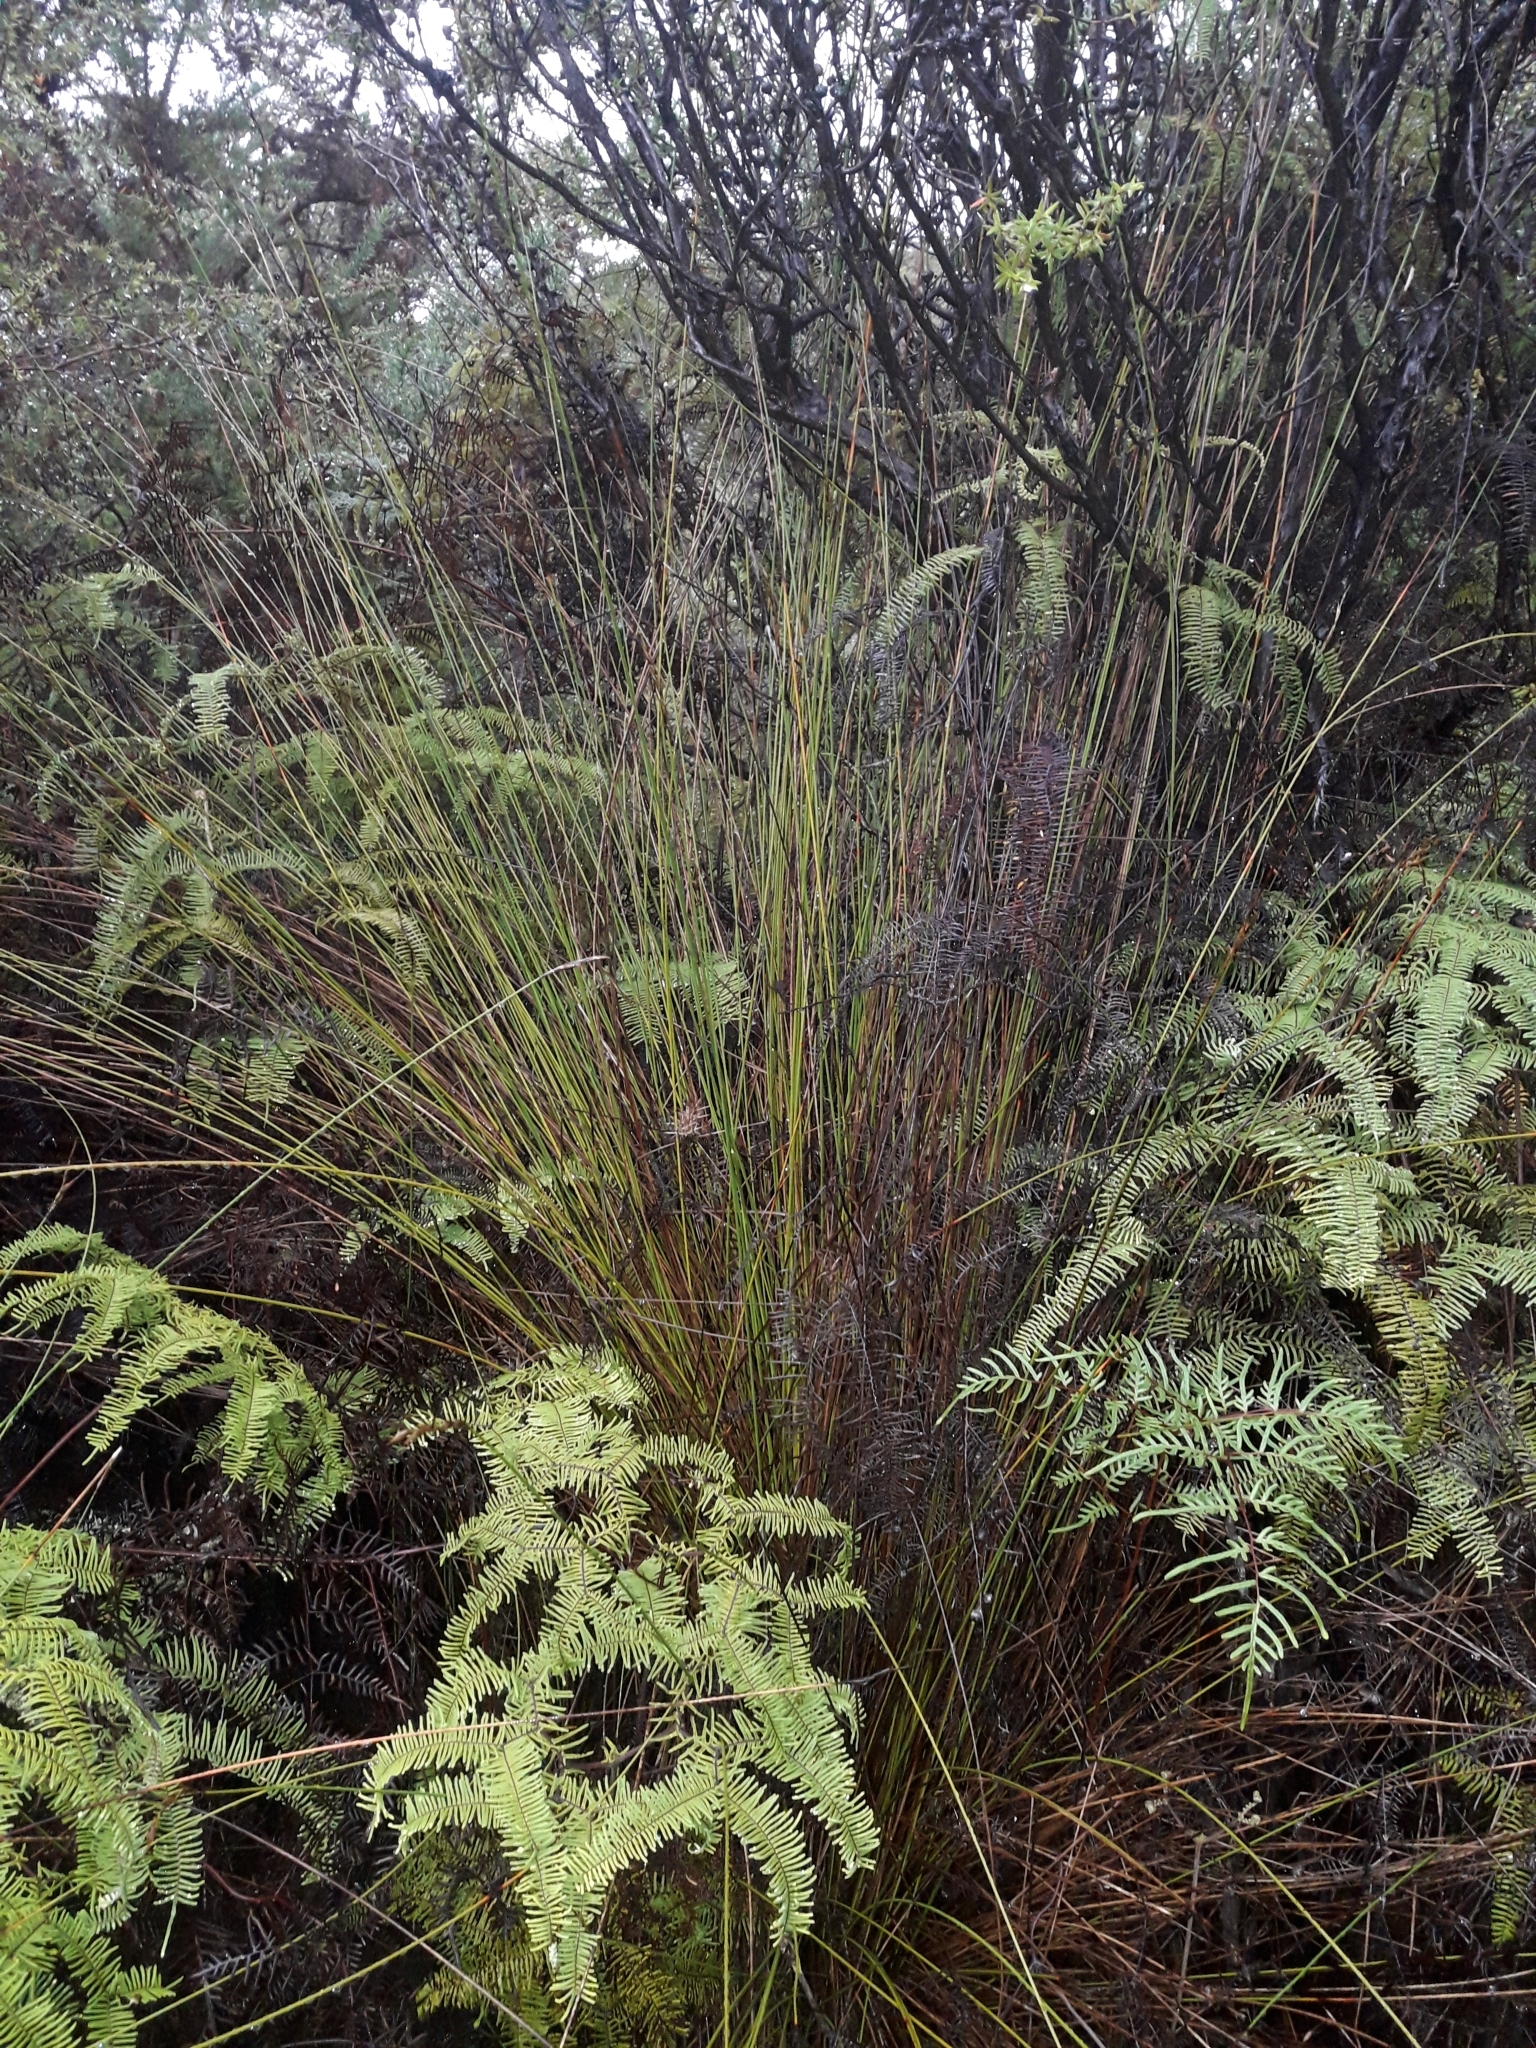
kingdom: Plantae
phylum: Tracheophyta
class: Liliopsida
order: Poales
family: Cyperaceae
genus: Lepidosperma
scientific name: Lepidosperma
